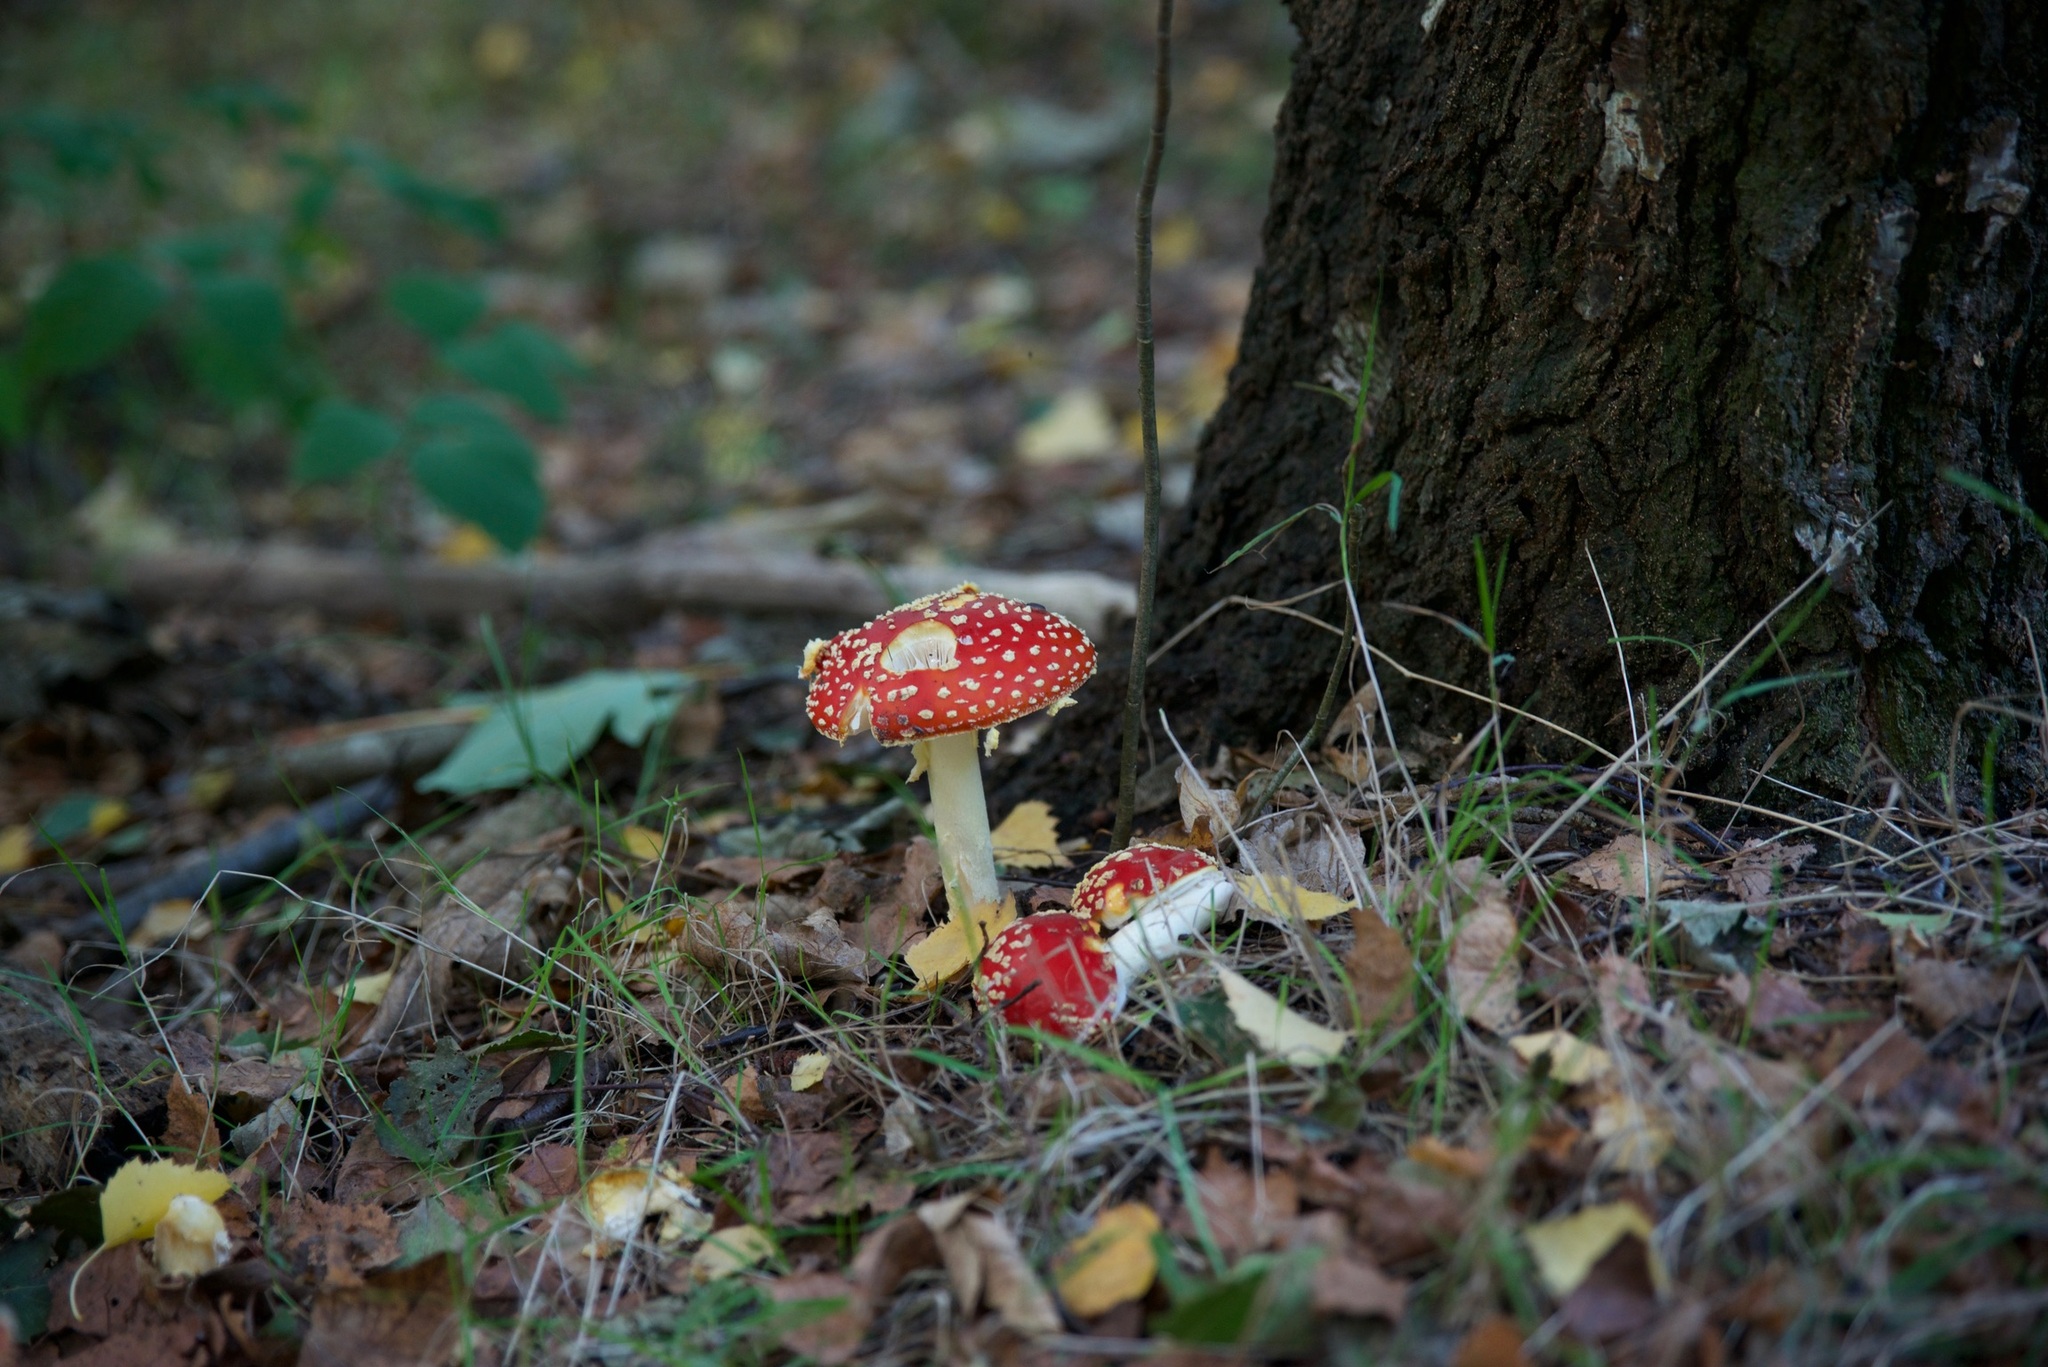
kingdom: Fungi
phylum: Basidiomycota
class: Agaricomycetes
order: Agaricales
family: Amanitaceae
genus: Amanita
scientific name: Amanita muscaria
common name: Fly agaric
